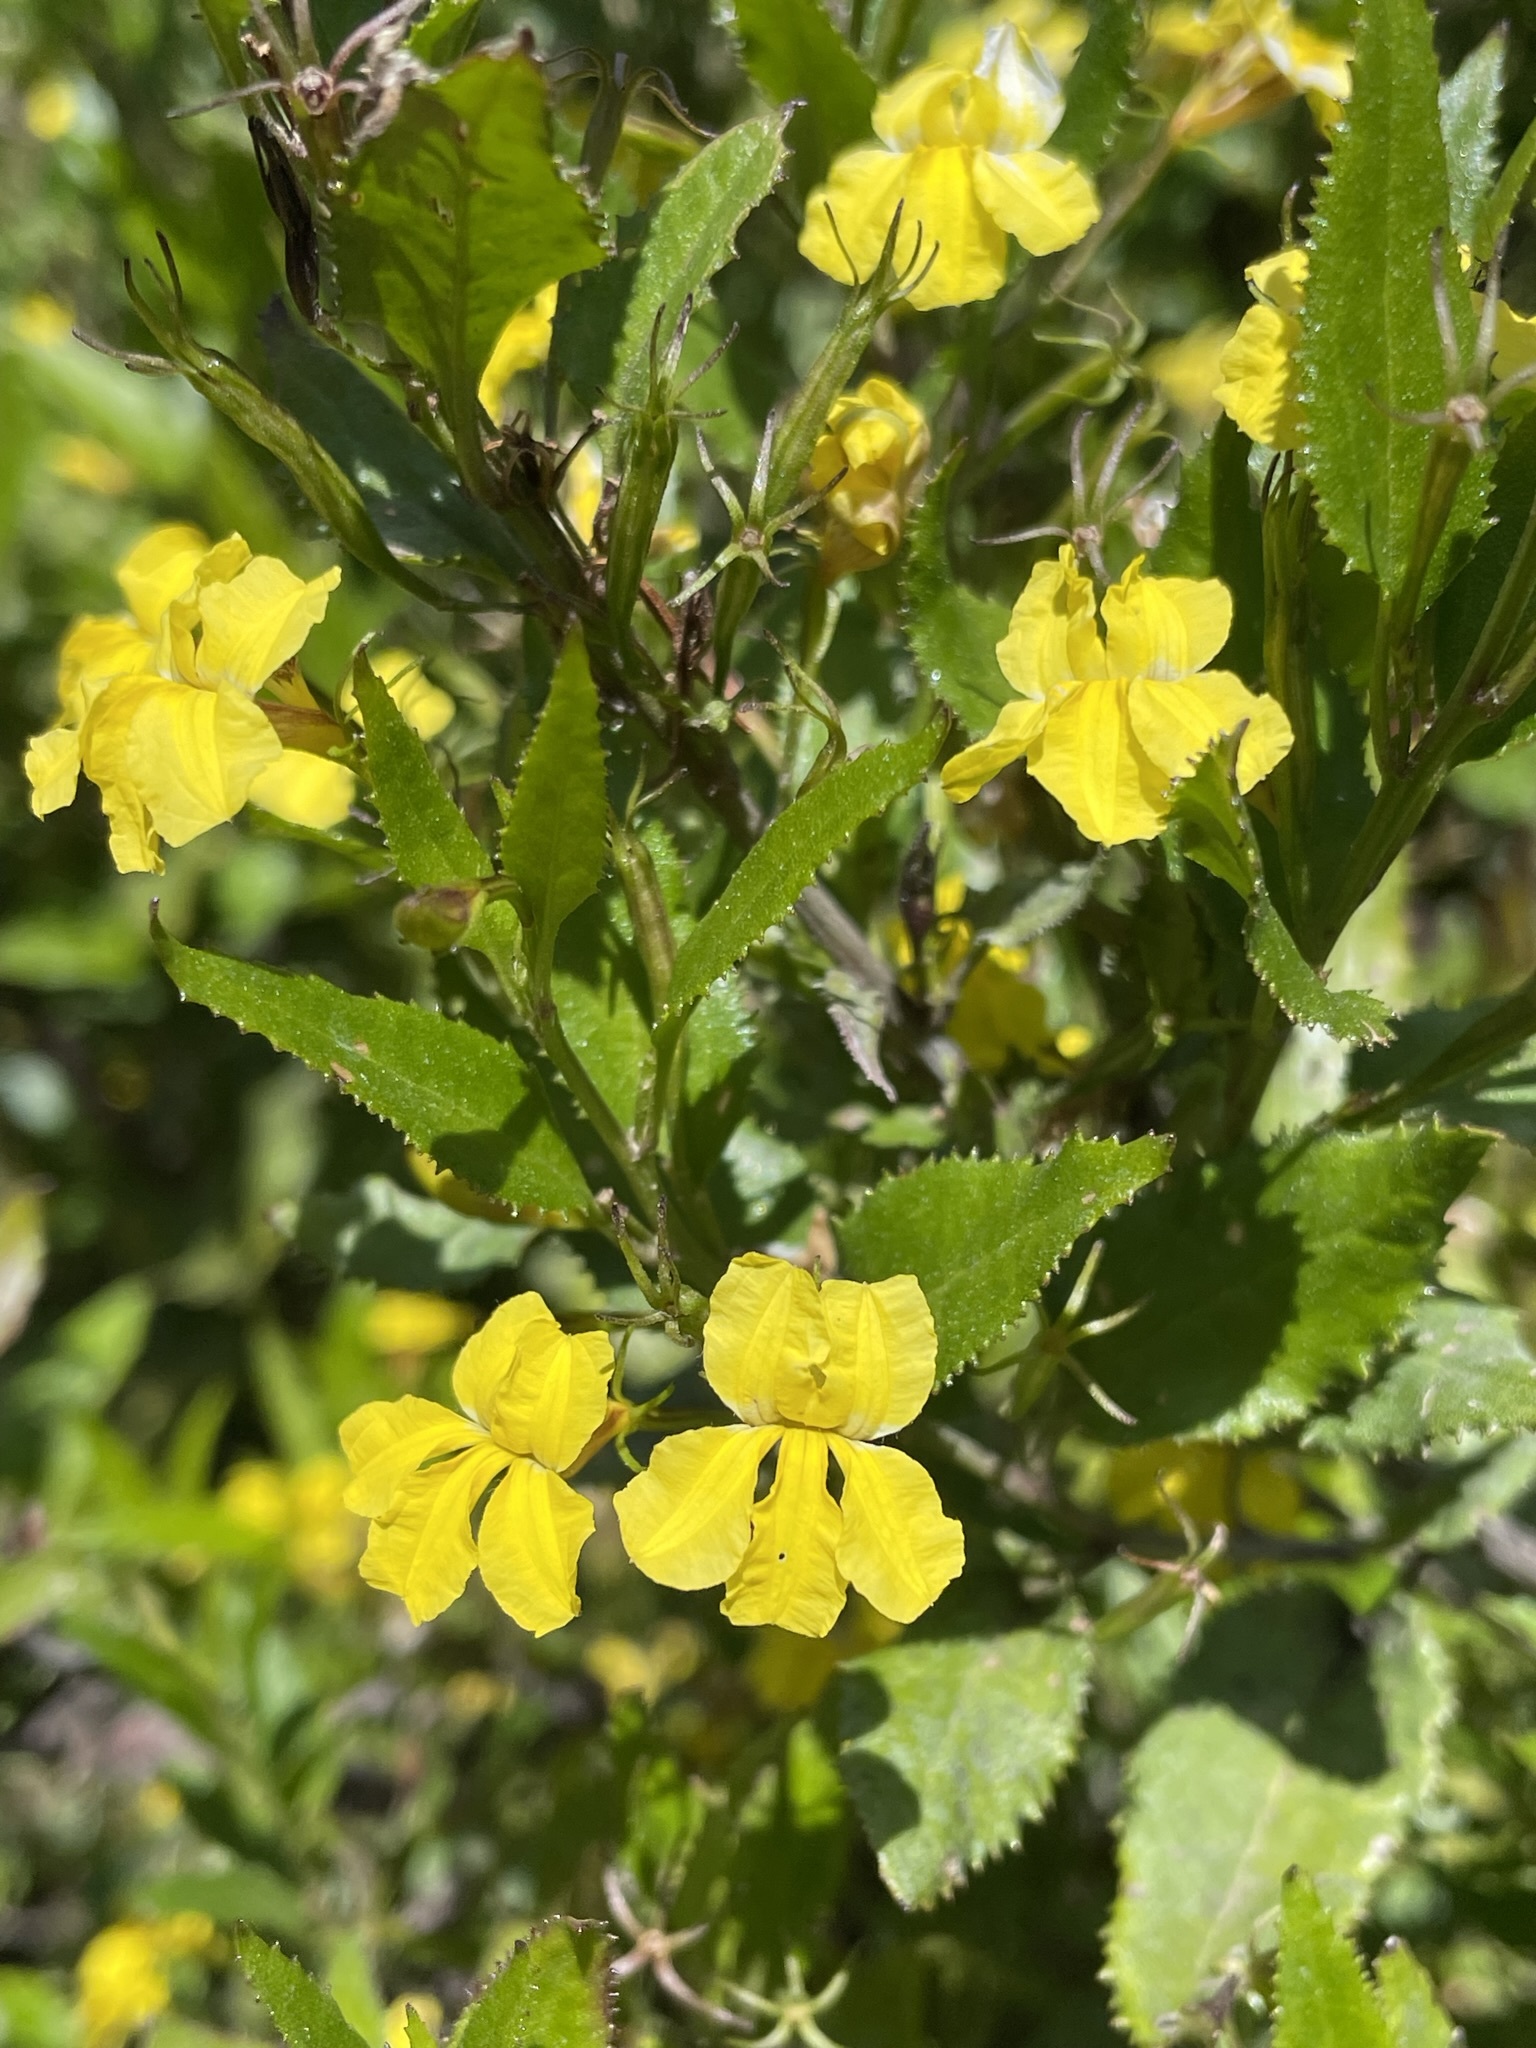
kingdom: Plantae
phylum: Tracheophyta
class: Magnoliopsida
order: Asterales
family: Goodeniaceae
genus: Goodenia
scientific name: Goodenia ovata
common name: Hop goodenia
